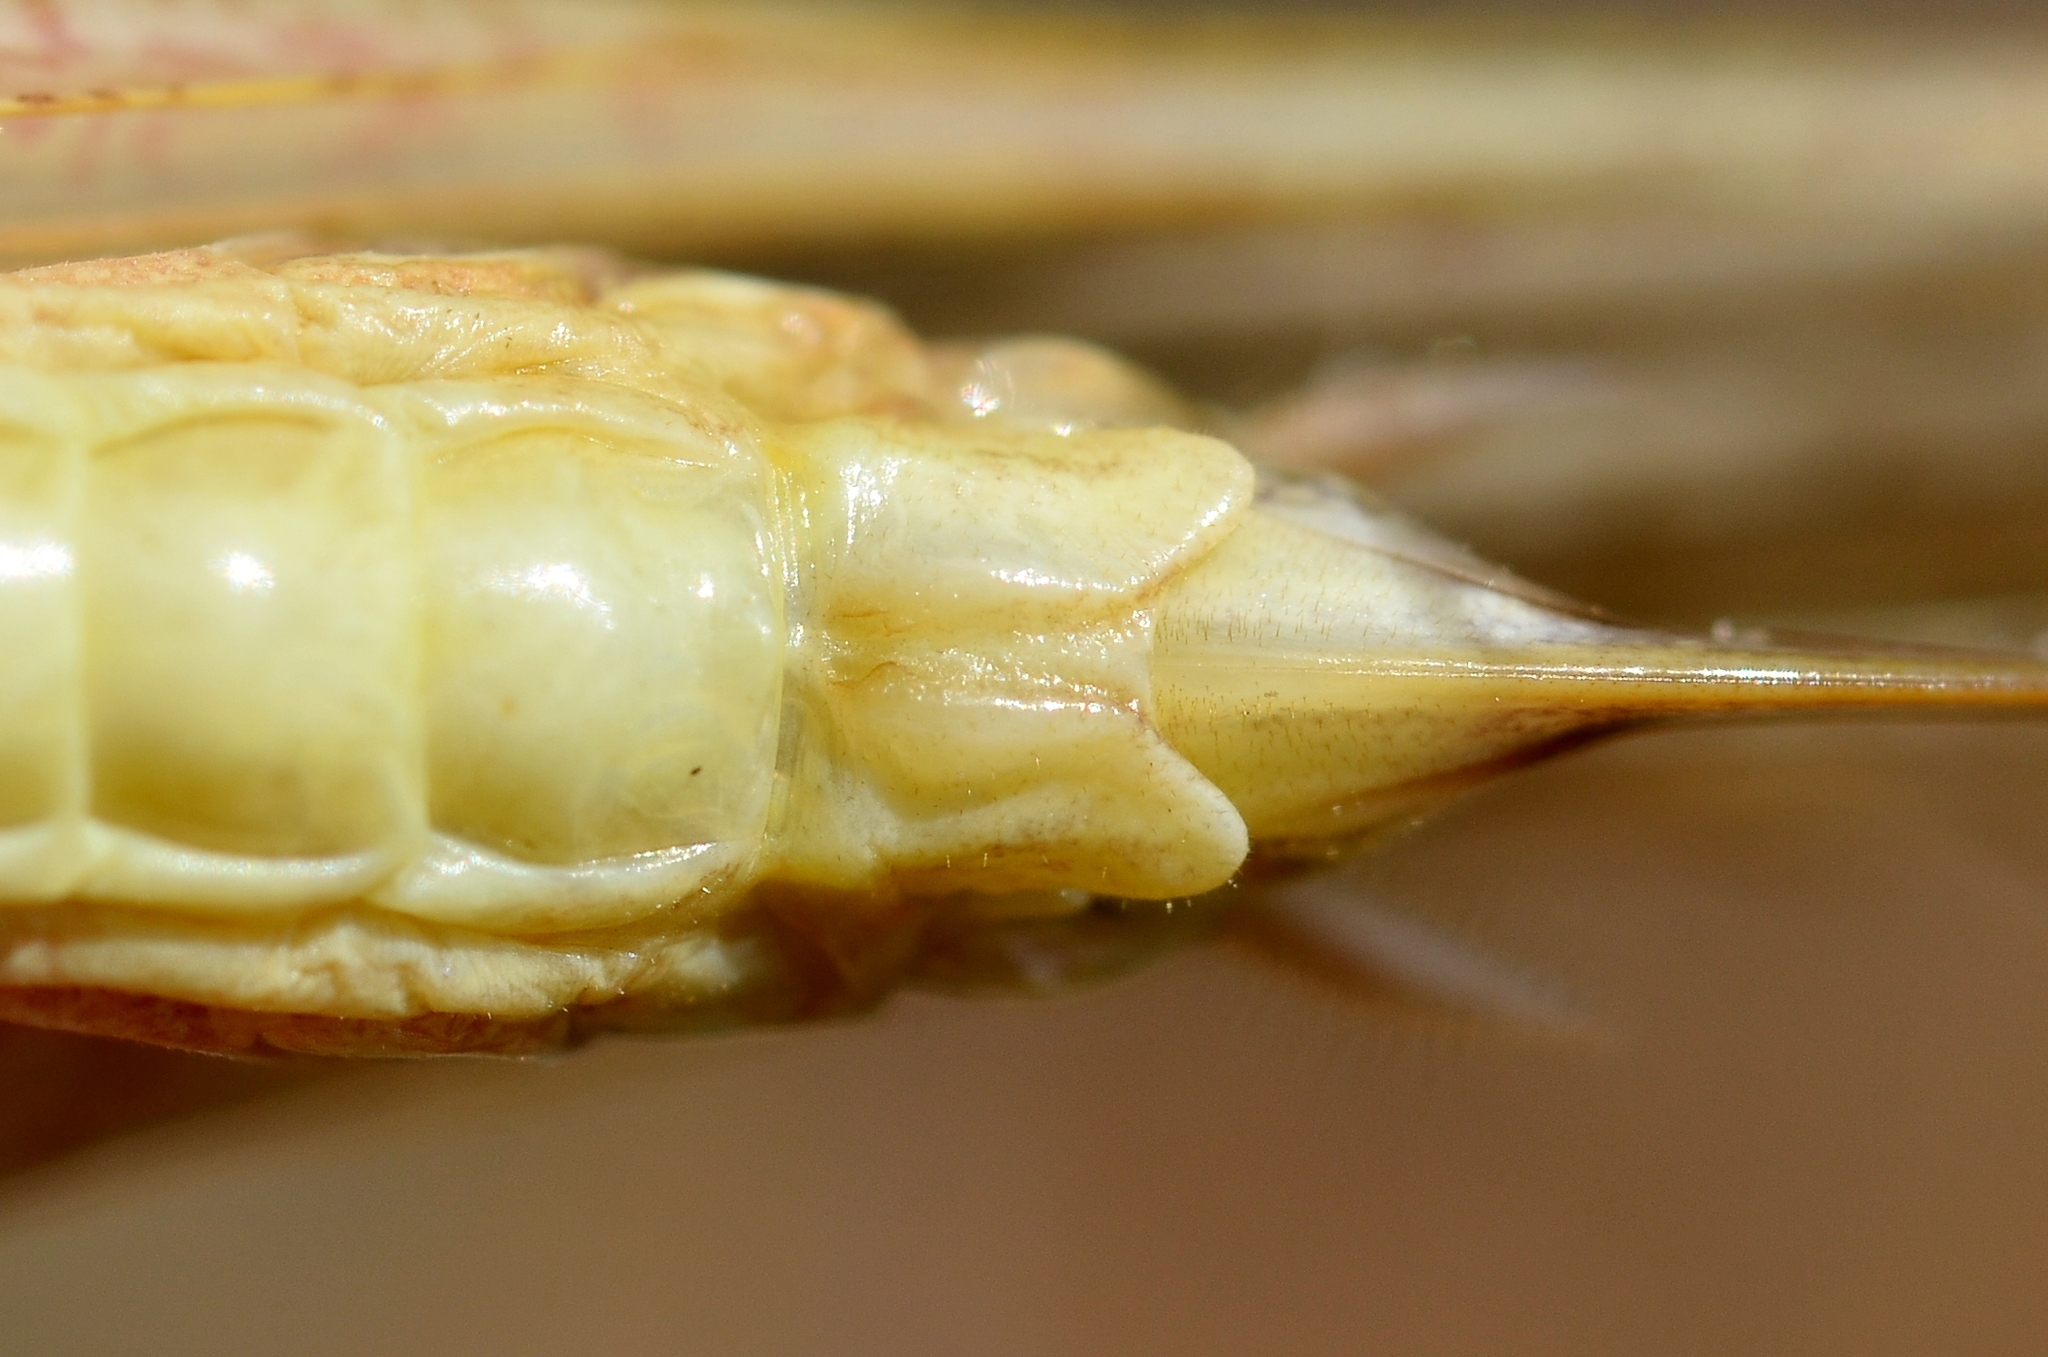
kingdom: Animalia
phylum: Arthropoda
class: Insecta
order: Orthoptera
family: Tettigoniidae
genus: Platycleis
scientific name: Platycleis intermedia
